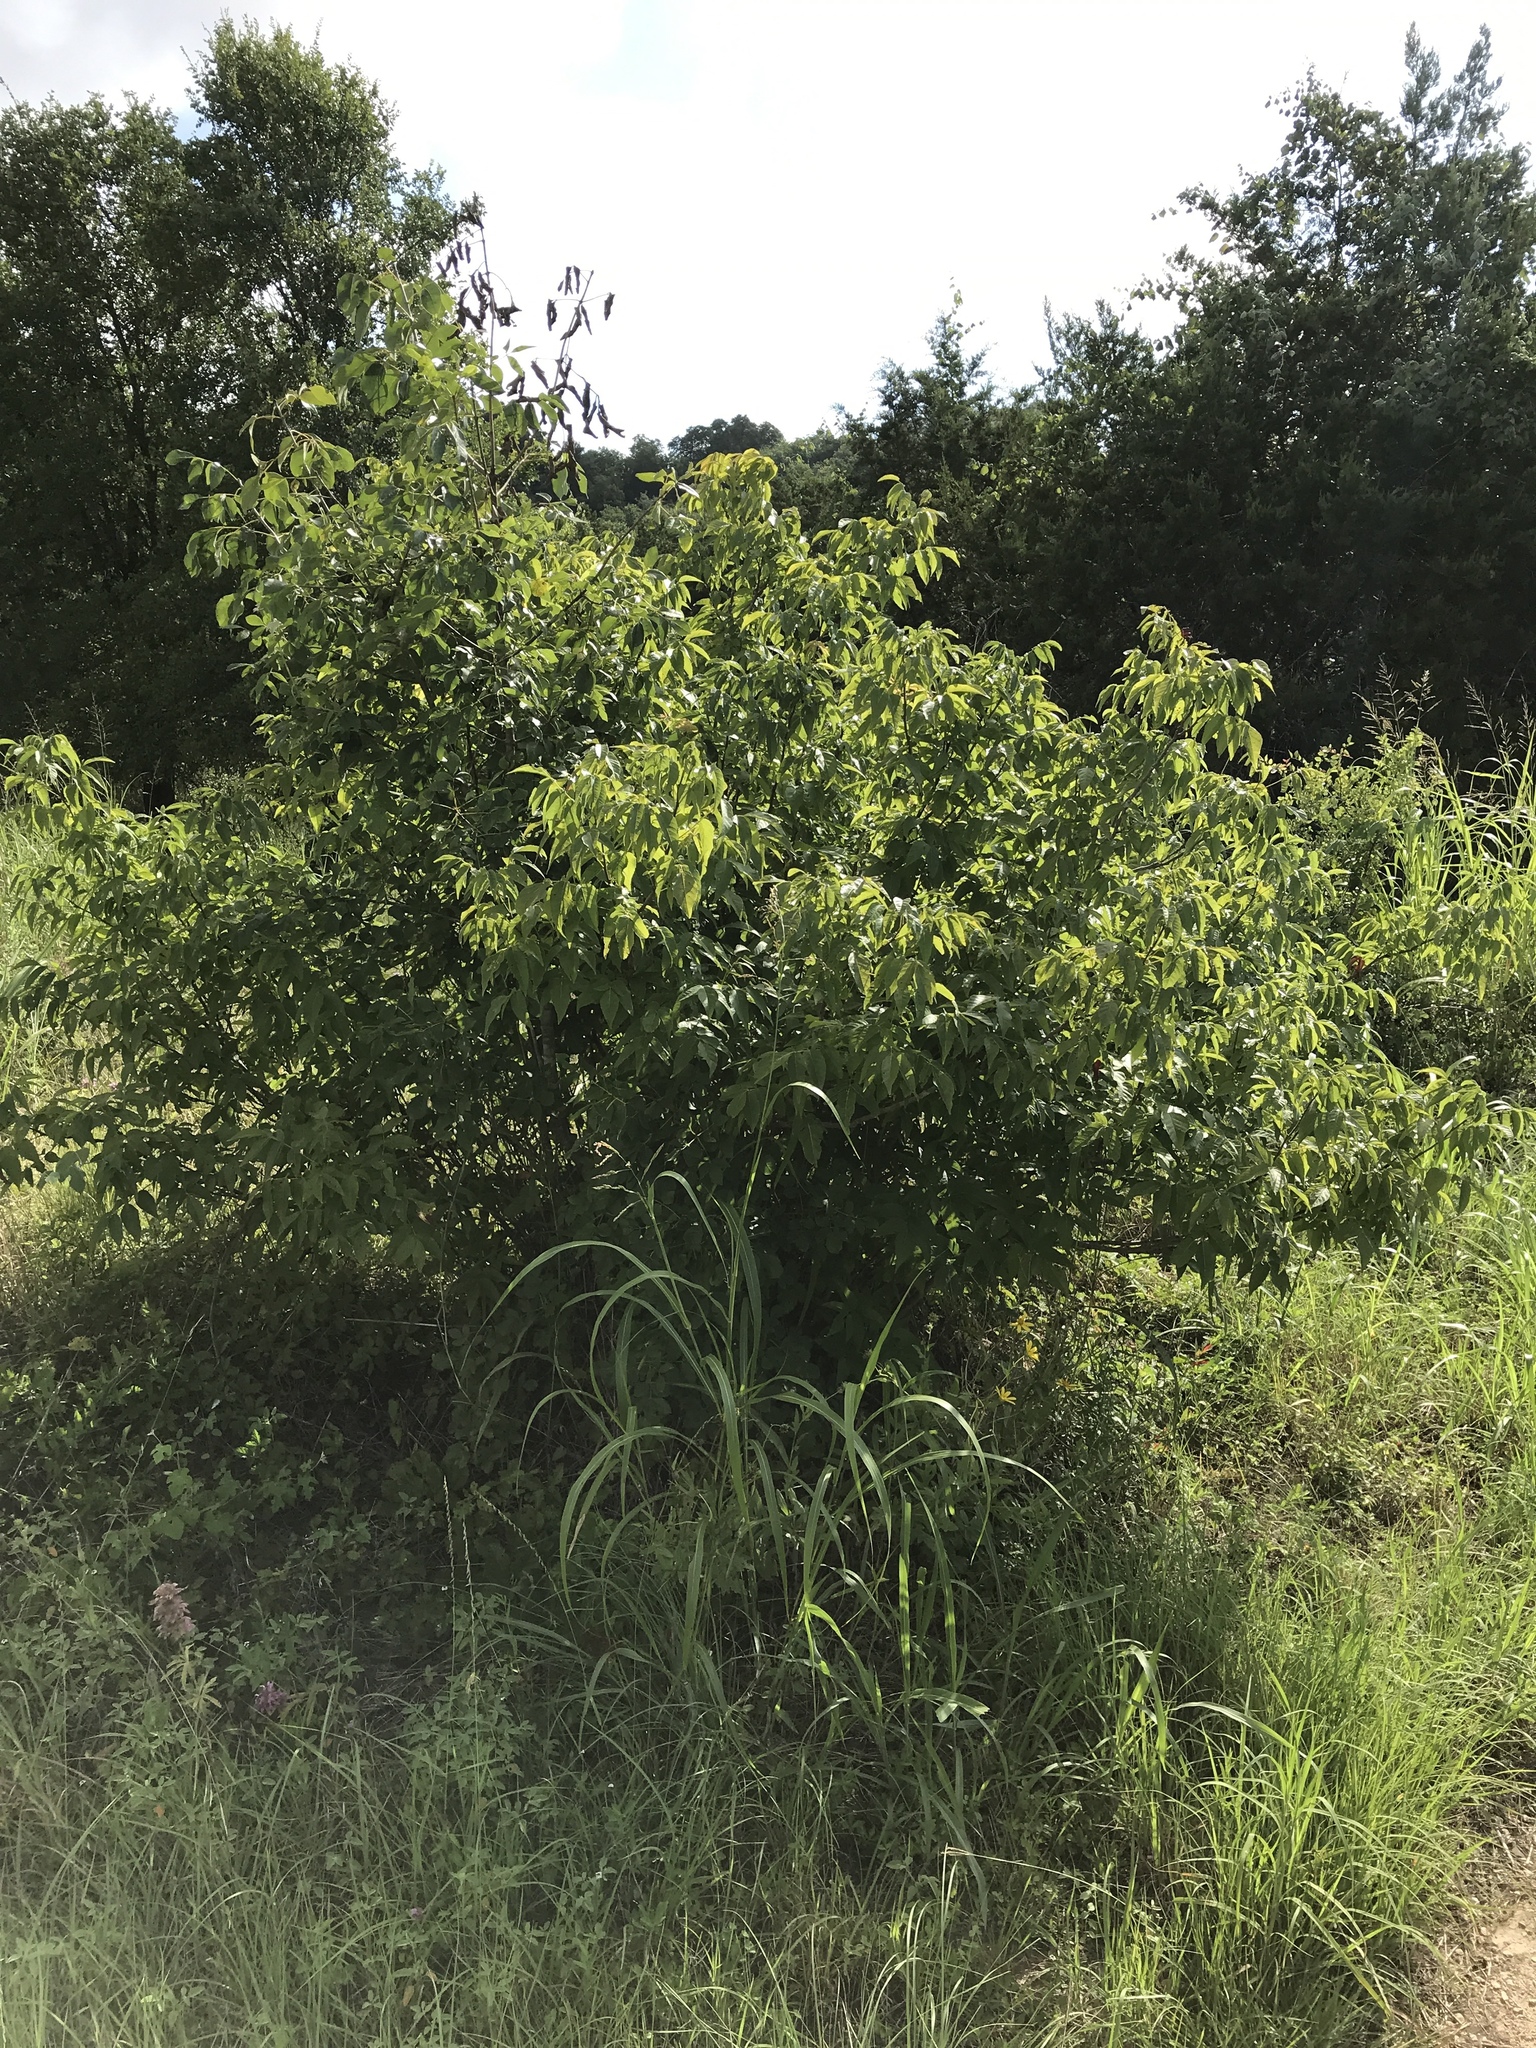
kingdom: Plantae
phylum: Tracheophyta
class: Magnoliopsida
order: Sapindales
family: Sapindaceae
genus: Ungnadia
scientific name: Ungnadia speciosa
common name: Texas-buckeye
